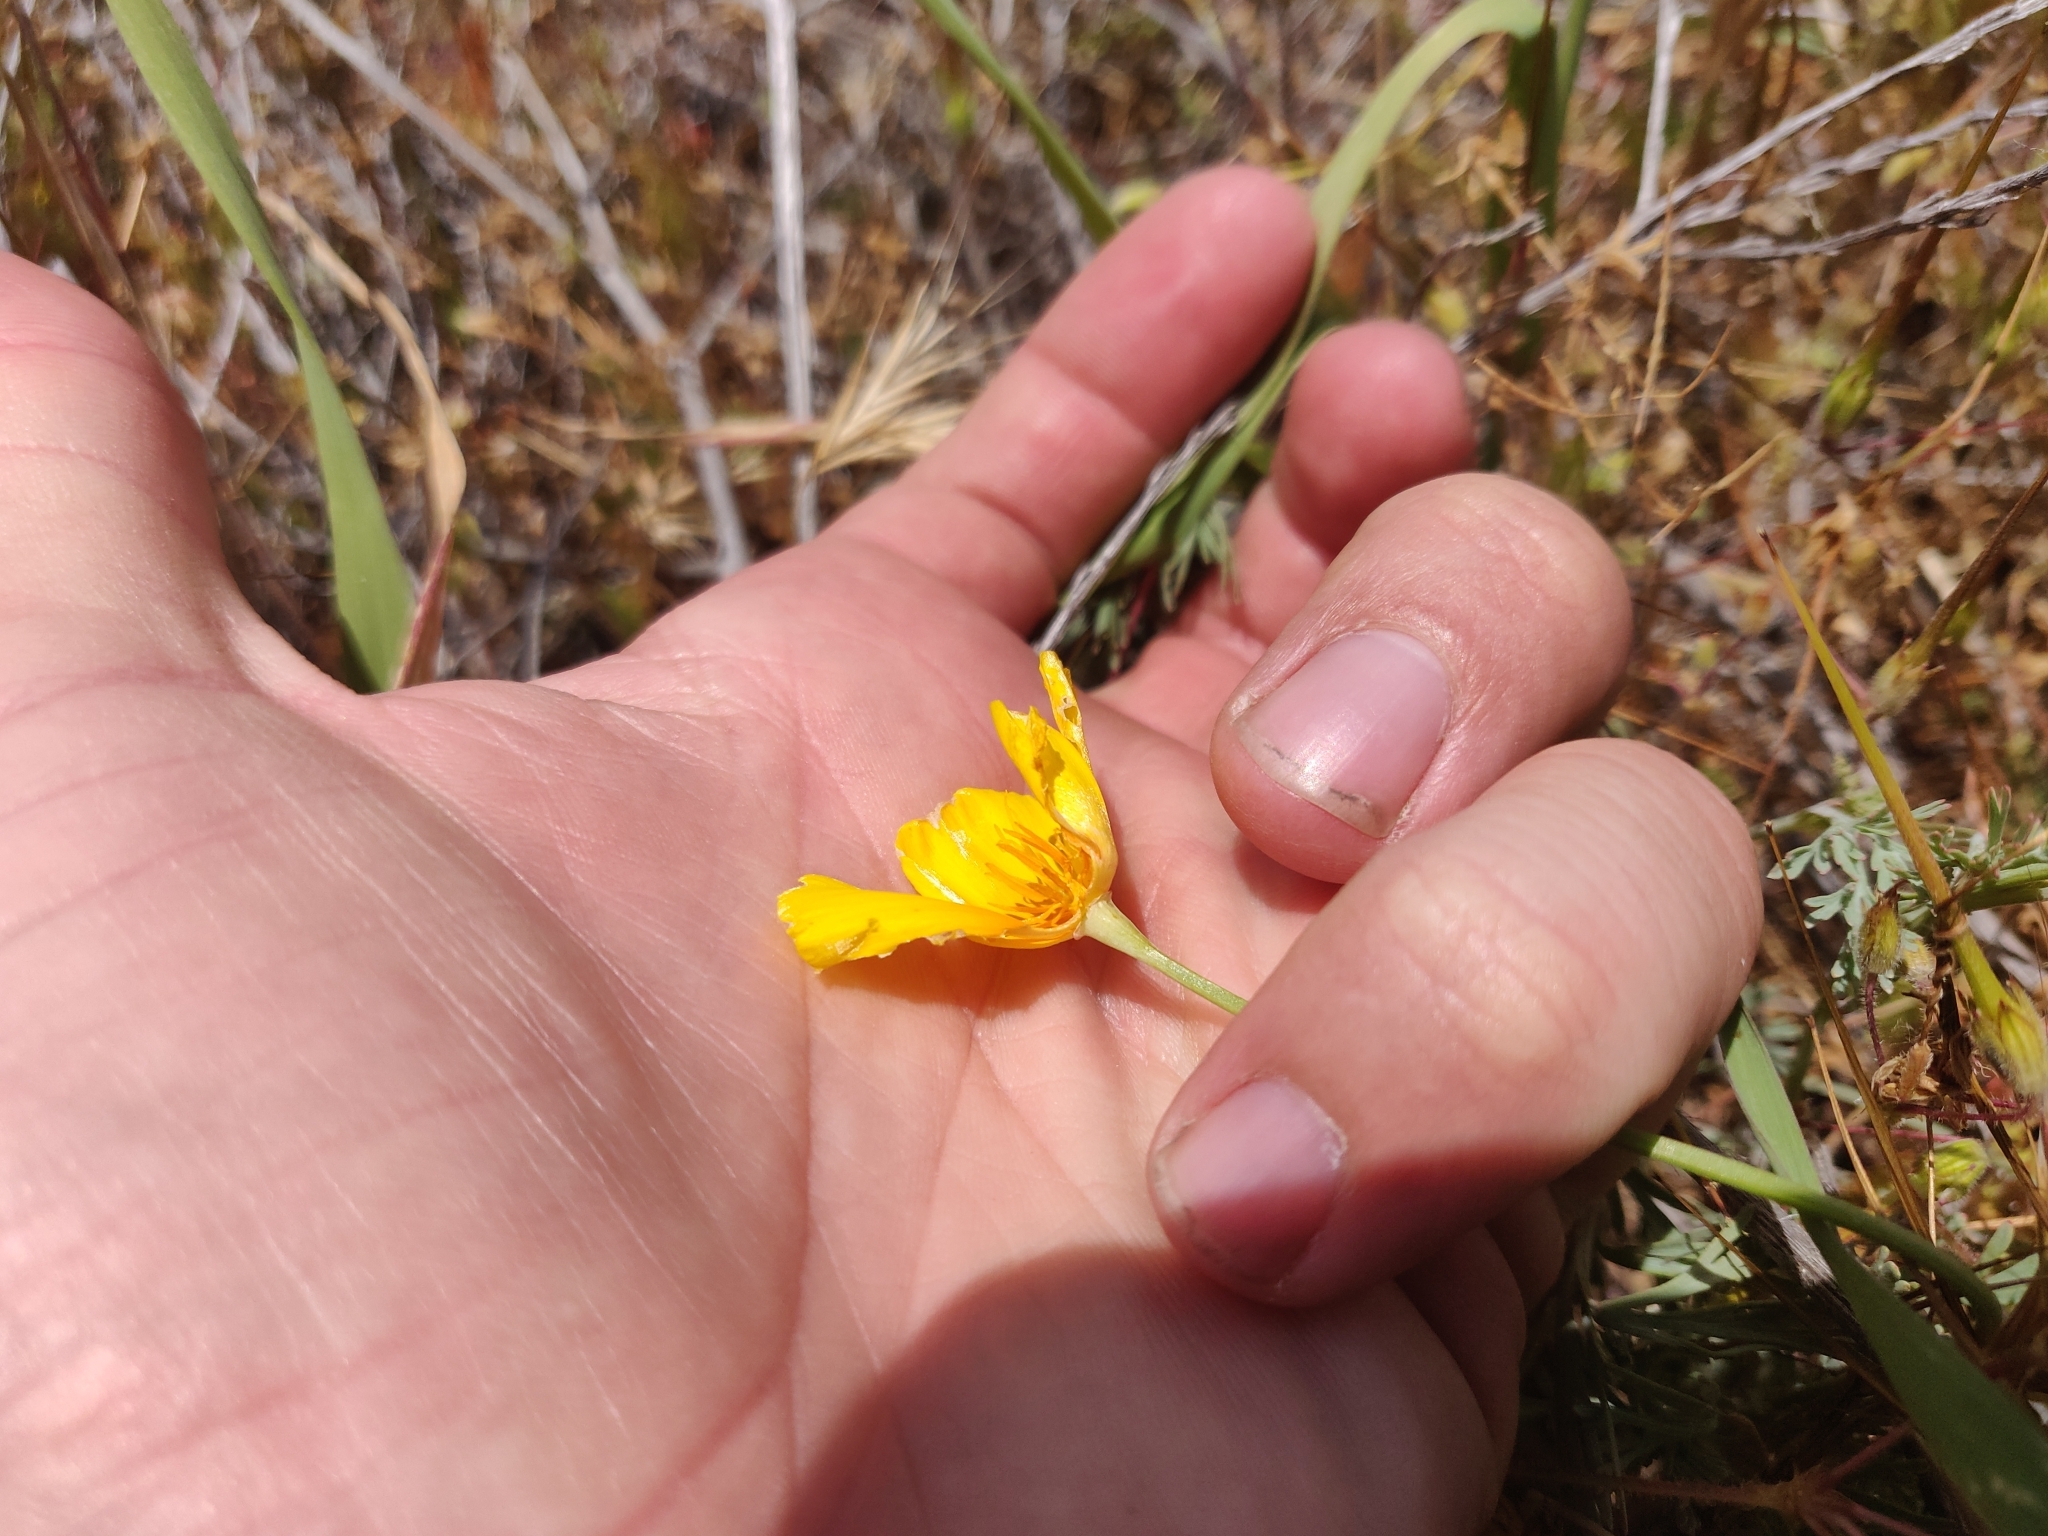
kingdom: Plantae
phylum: Tracheophyta
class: Magnoliopsida
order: Ranunculales
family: Papaveraceae
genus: Eschscholzia
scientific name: Eschscholzia californica
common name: California poppy
